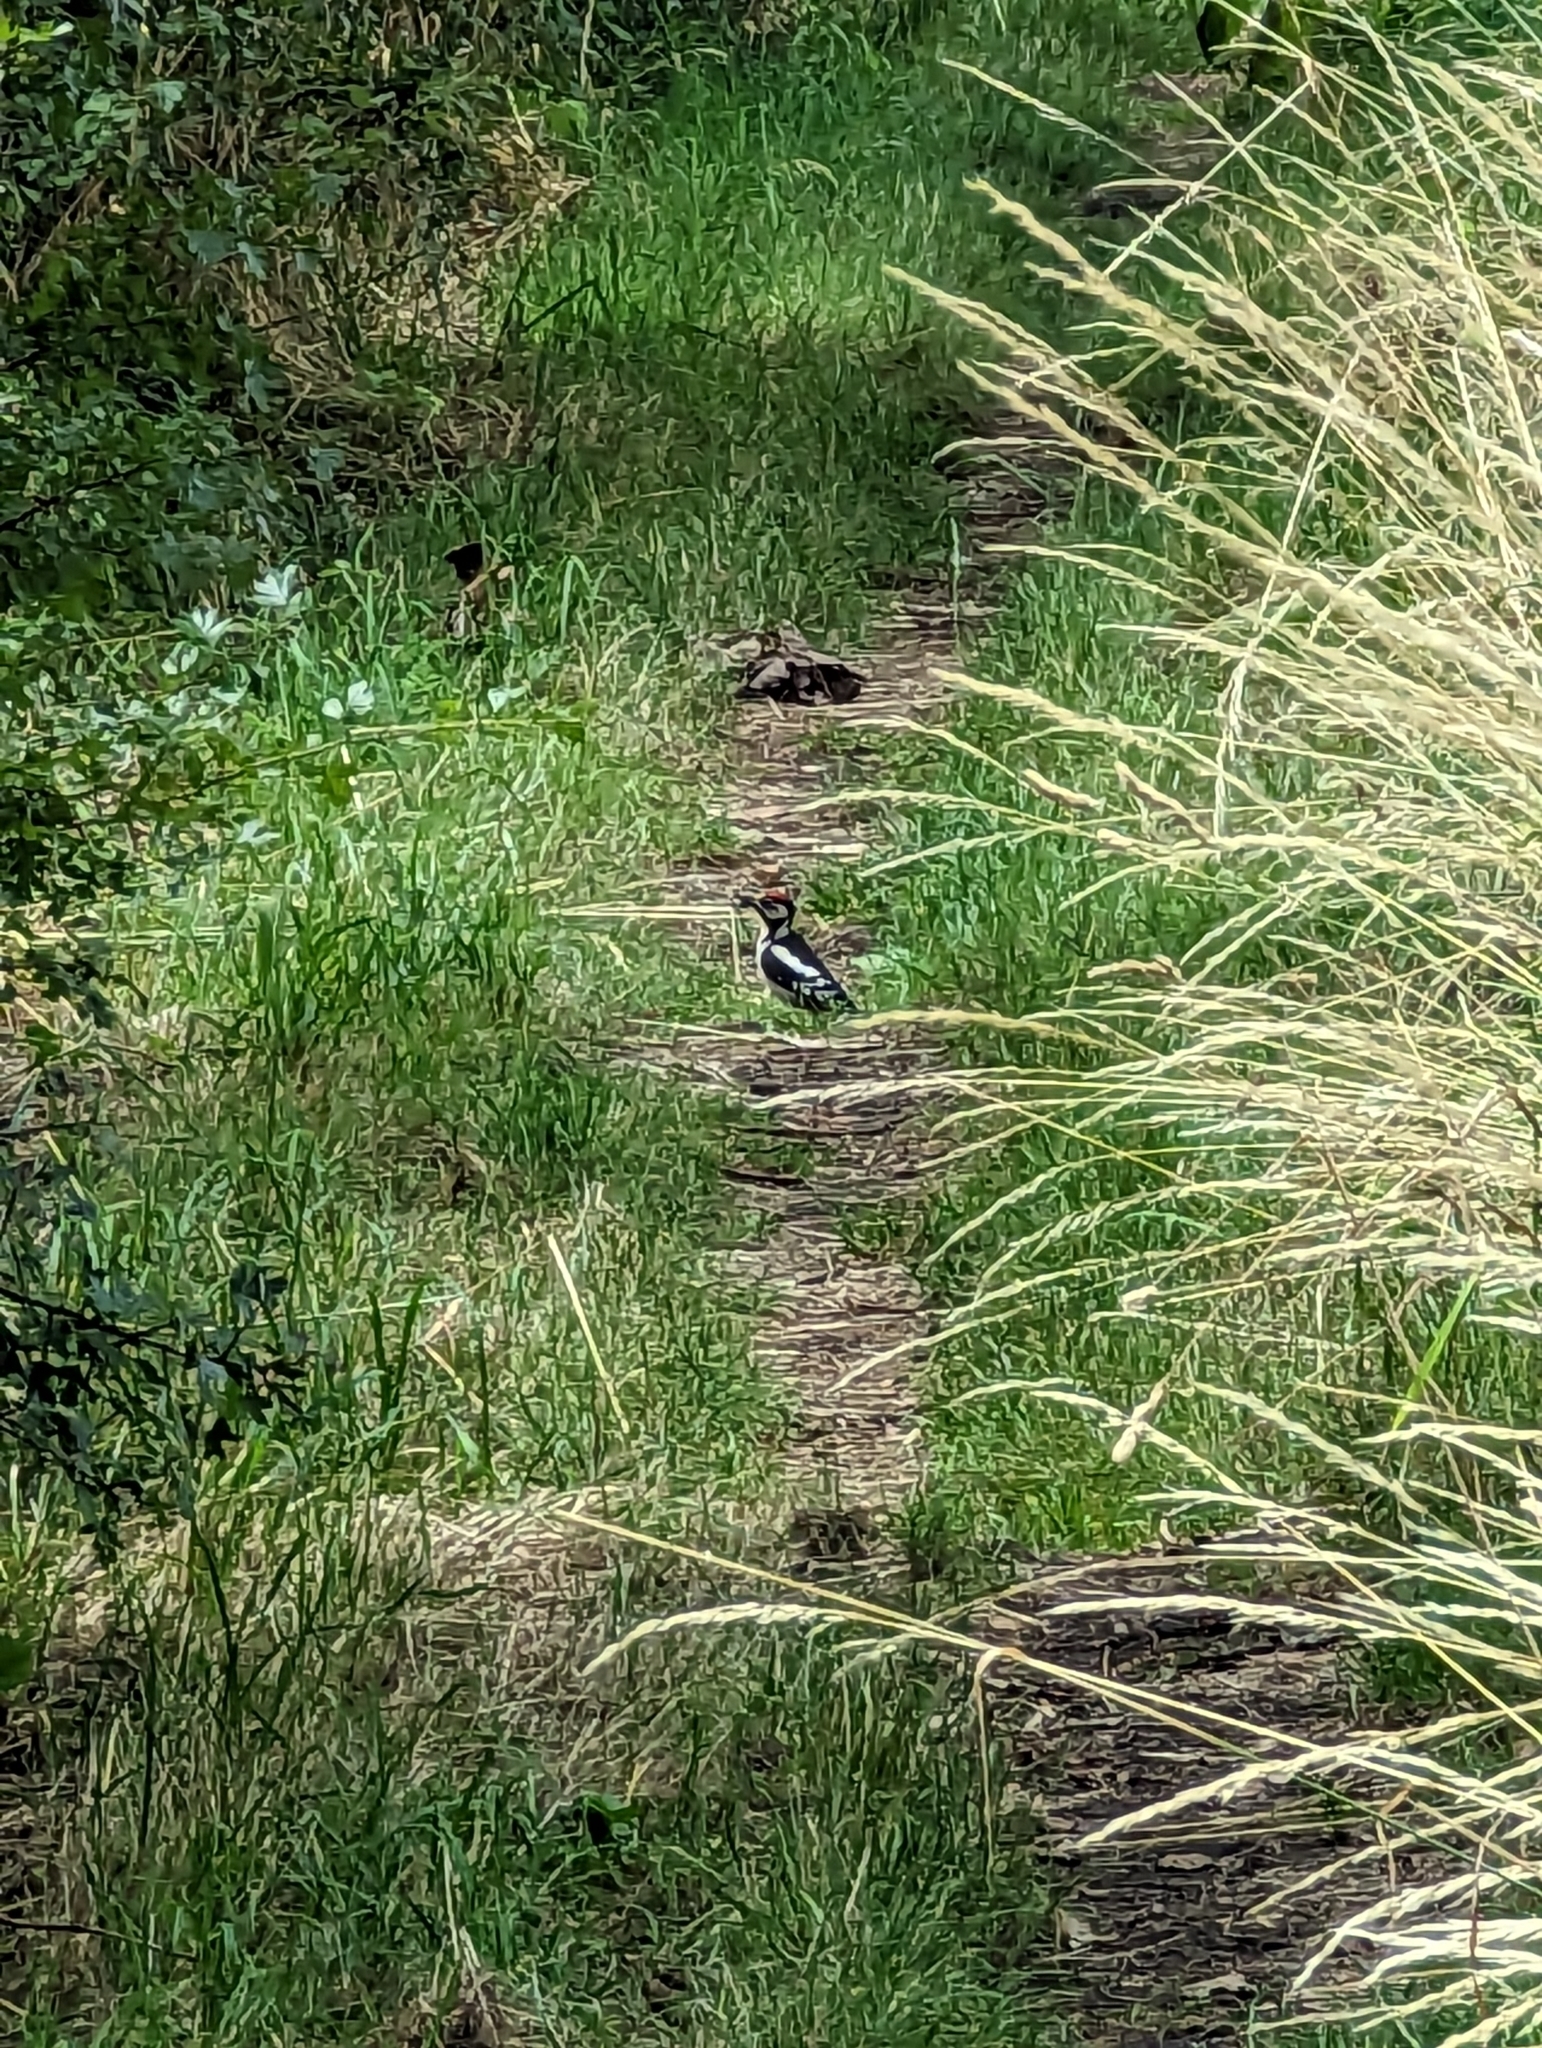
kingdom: Animalia
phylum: Chordata
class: Aves
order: Piciformes
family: Picidae
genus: Dendrocopos
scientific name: Dendrocopos major
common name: Great spotted woodpecker
